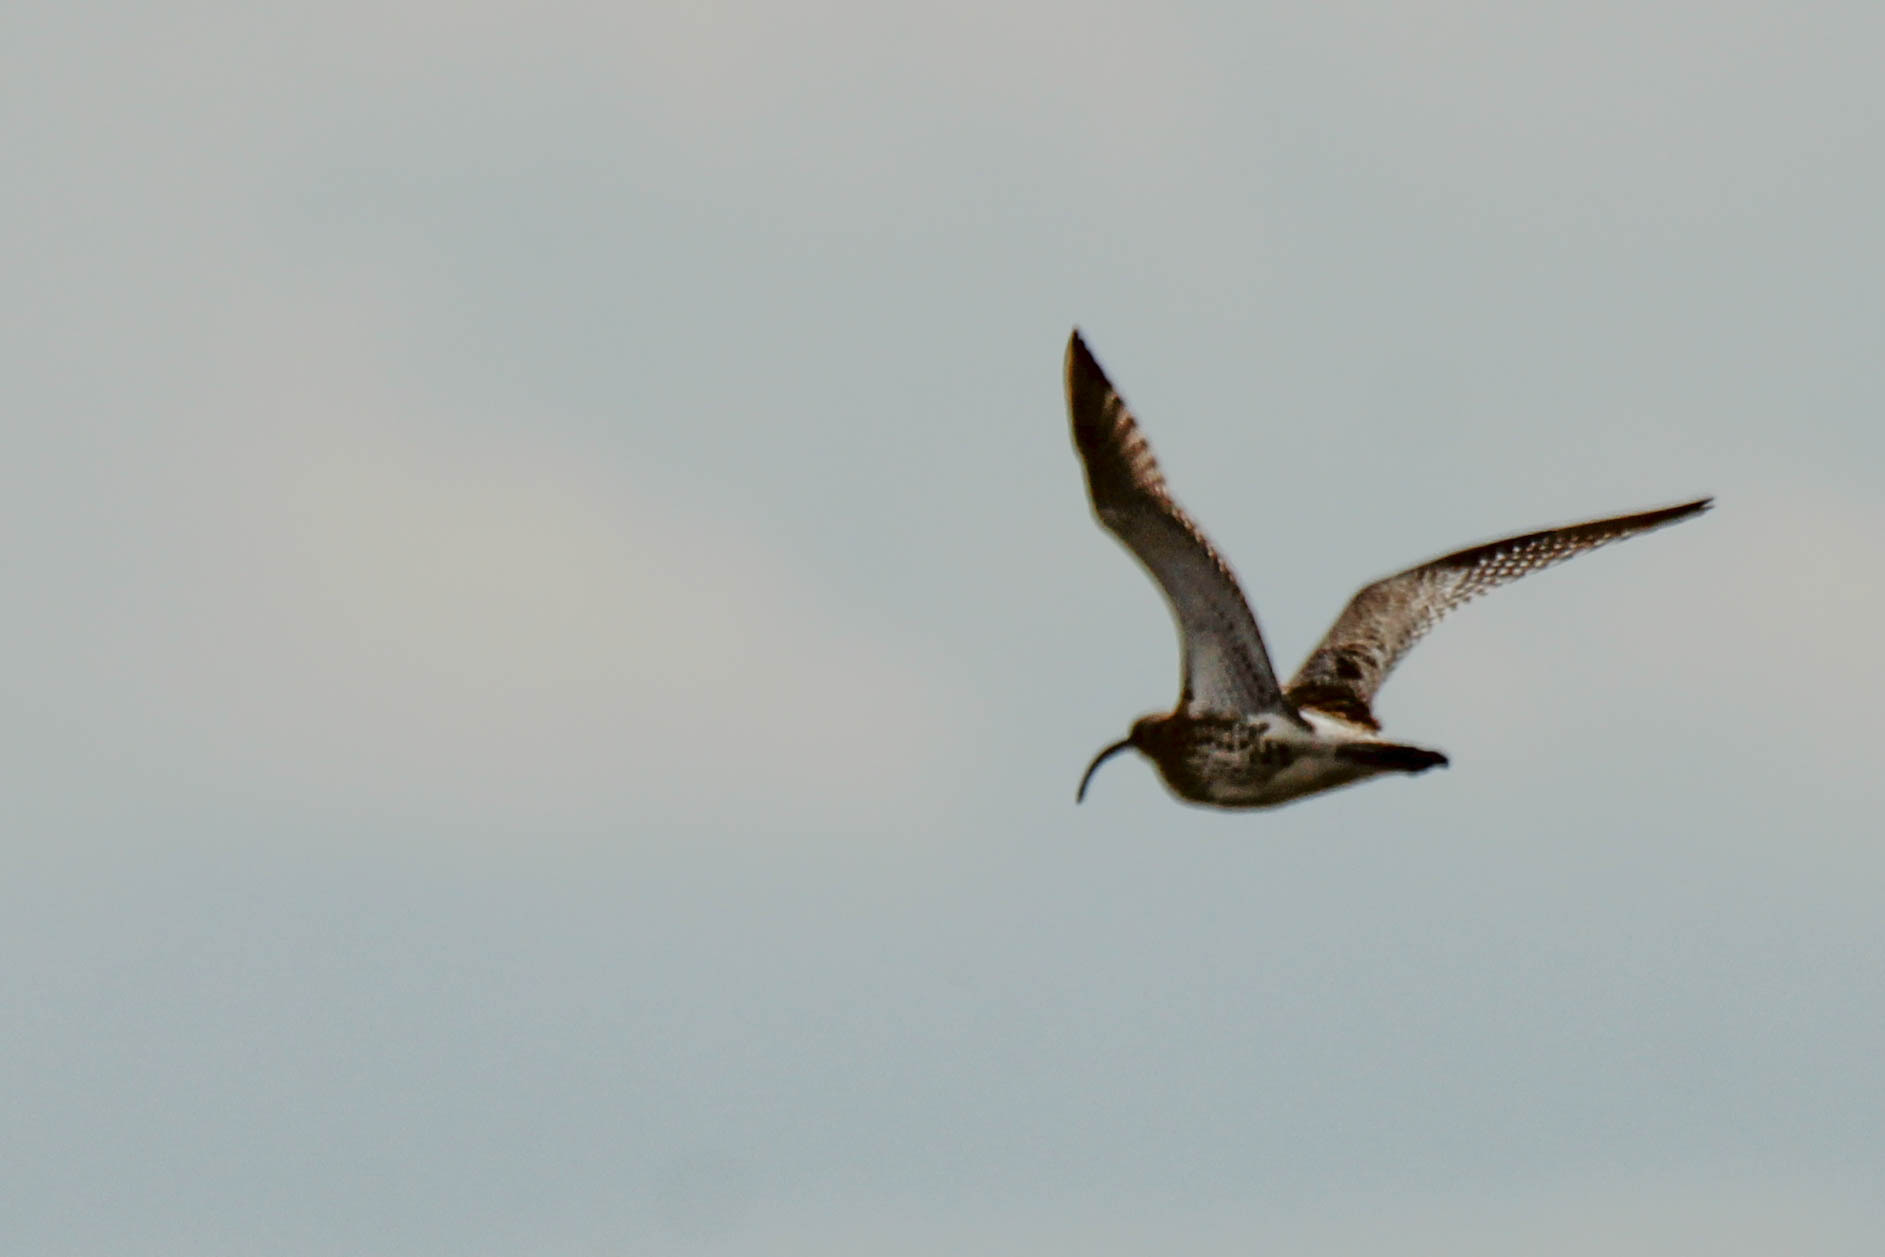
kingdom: Animalia
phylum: Chordata
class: Aves
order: Charadriiformes
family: Scolopacidae
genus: Numenius
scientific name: Numenius arquata
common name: Eurasian curlew
